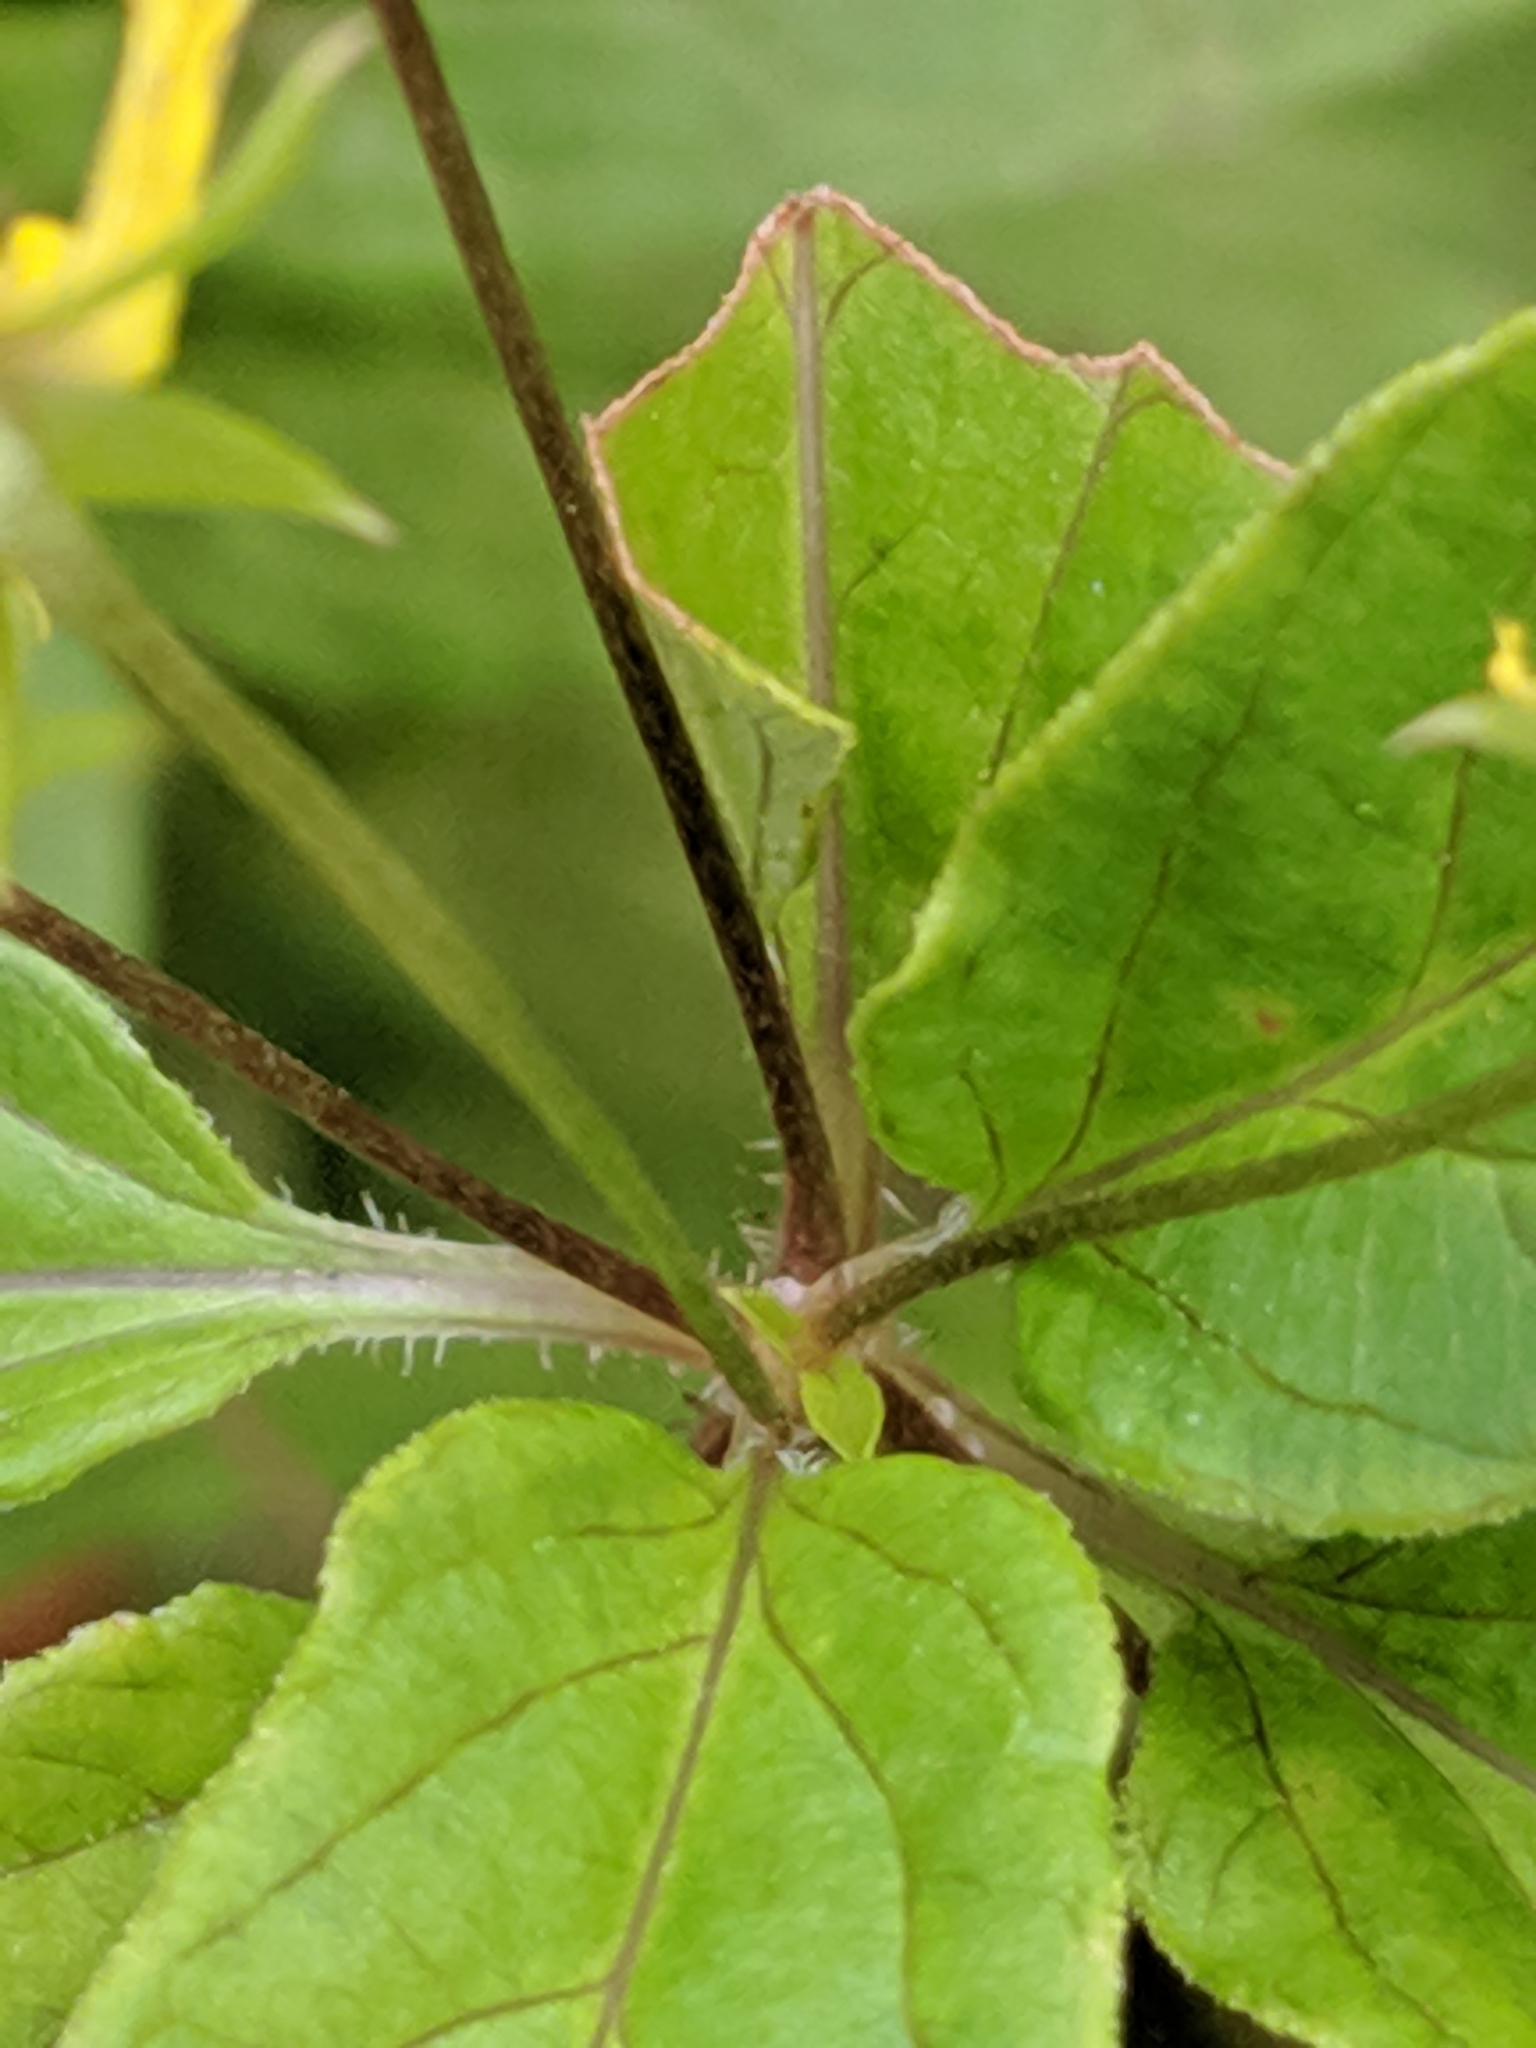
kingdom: Plantae
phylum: Tracheophyta
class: Magnoliopsida
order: Ericales
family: Primulaceae
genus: Lysimachia
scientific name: Lysimachia ciliata
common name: Fringed loosestrife
